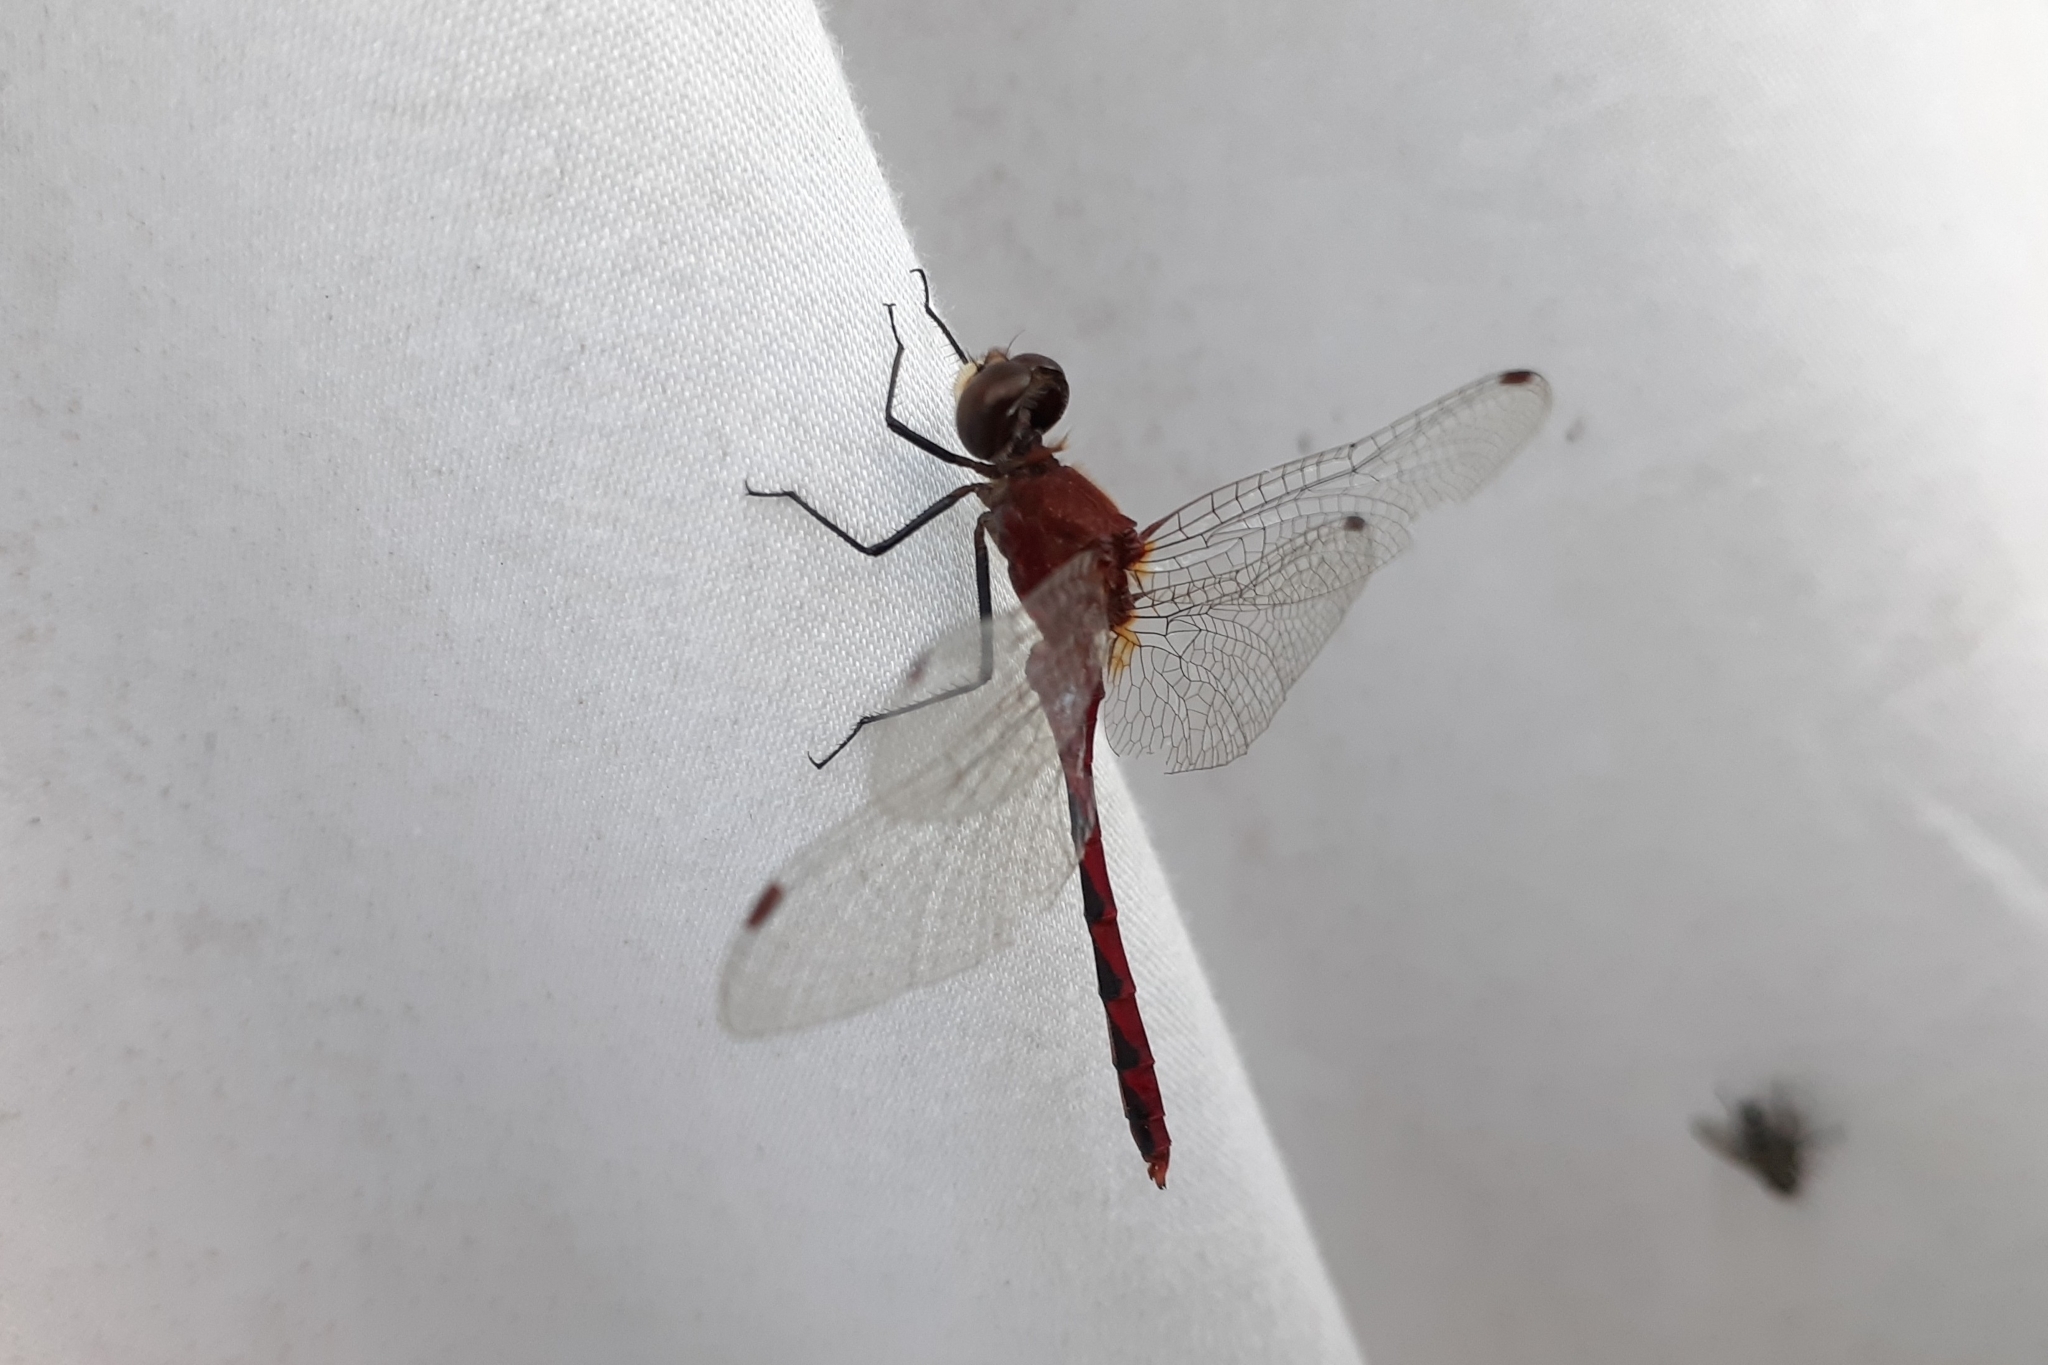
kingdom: Animalia
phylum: Arthropoda
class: Insecta
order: Odonata
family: Libellulidae
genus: Sympetrum
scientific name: Sympetrum obtrusum
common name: White-faced meadowhawk
